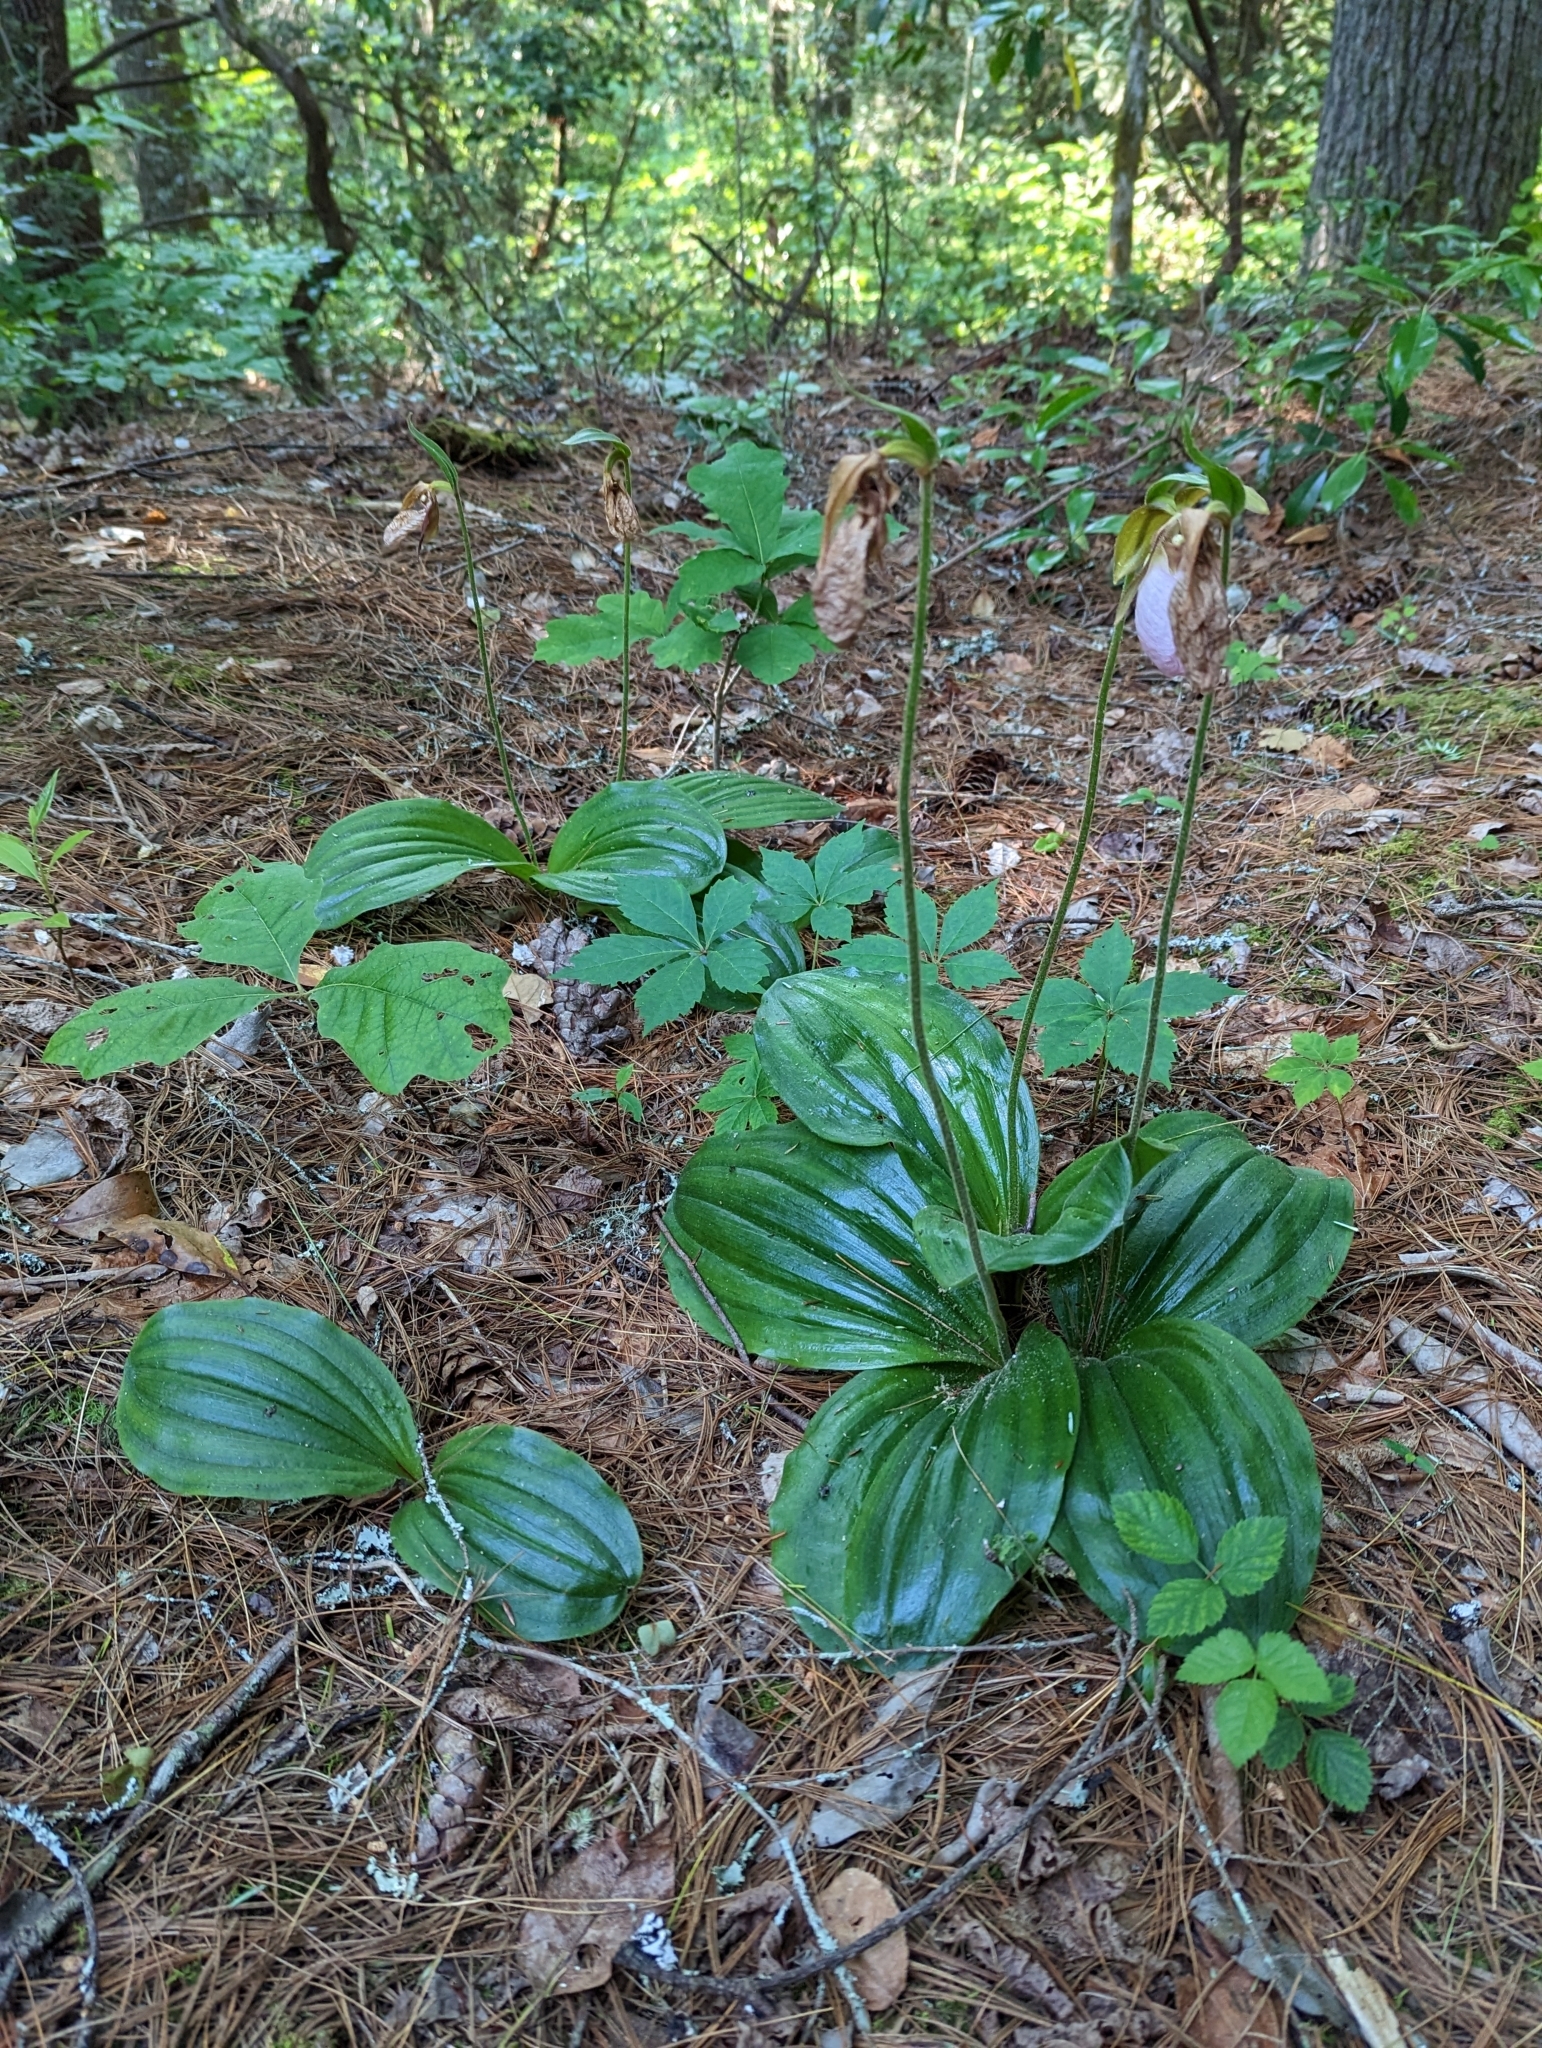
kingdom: Plantae
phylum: Tracheophyta
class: Liliopsida
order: Asparagales
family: Orchidaceae
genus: Cypripedium
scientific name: Cypripedium acaule
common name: Pink lady's-slipper
